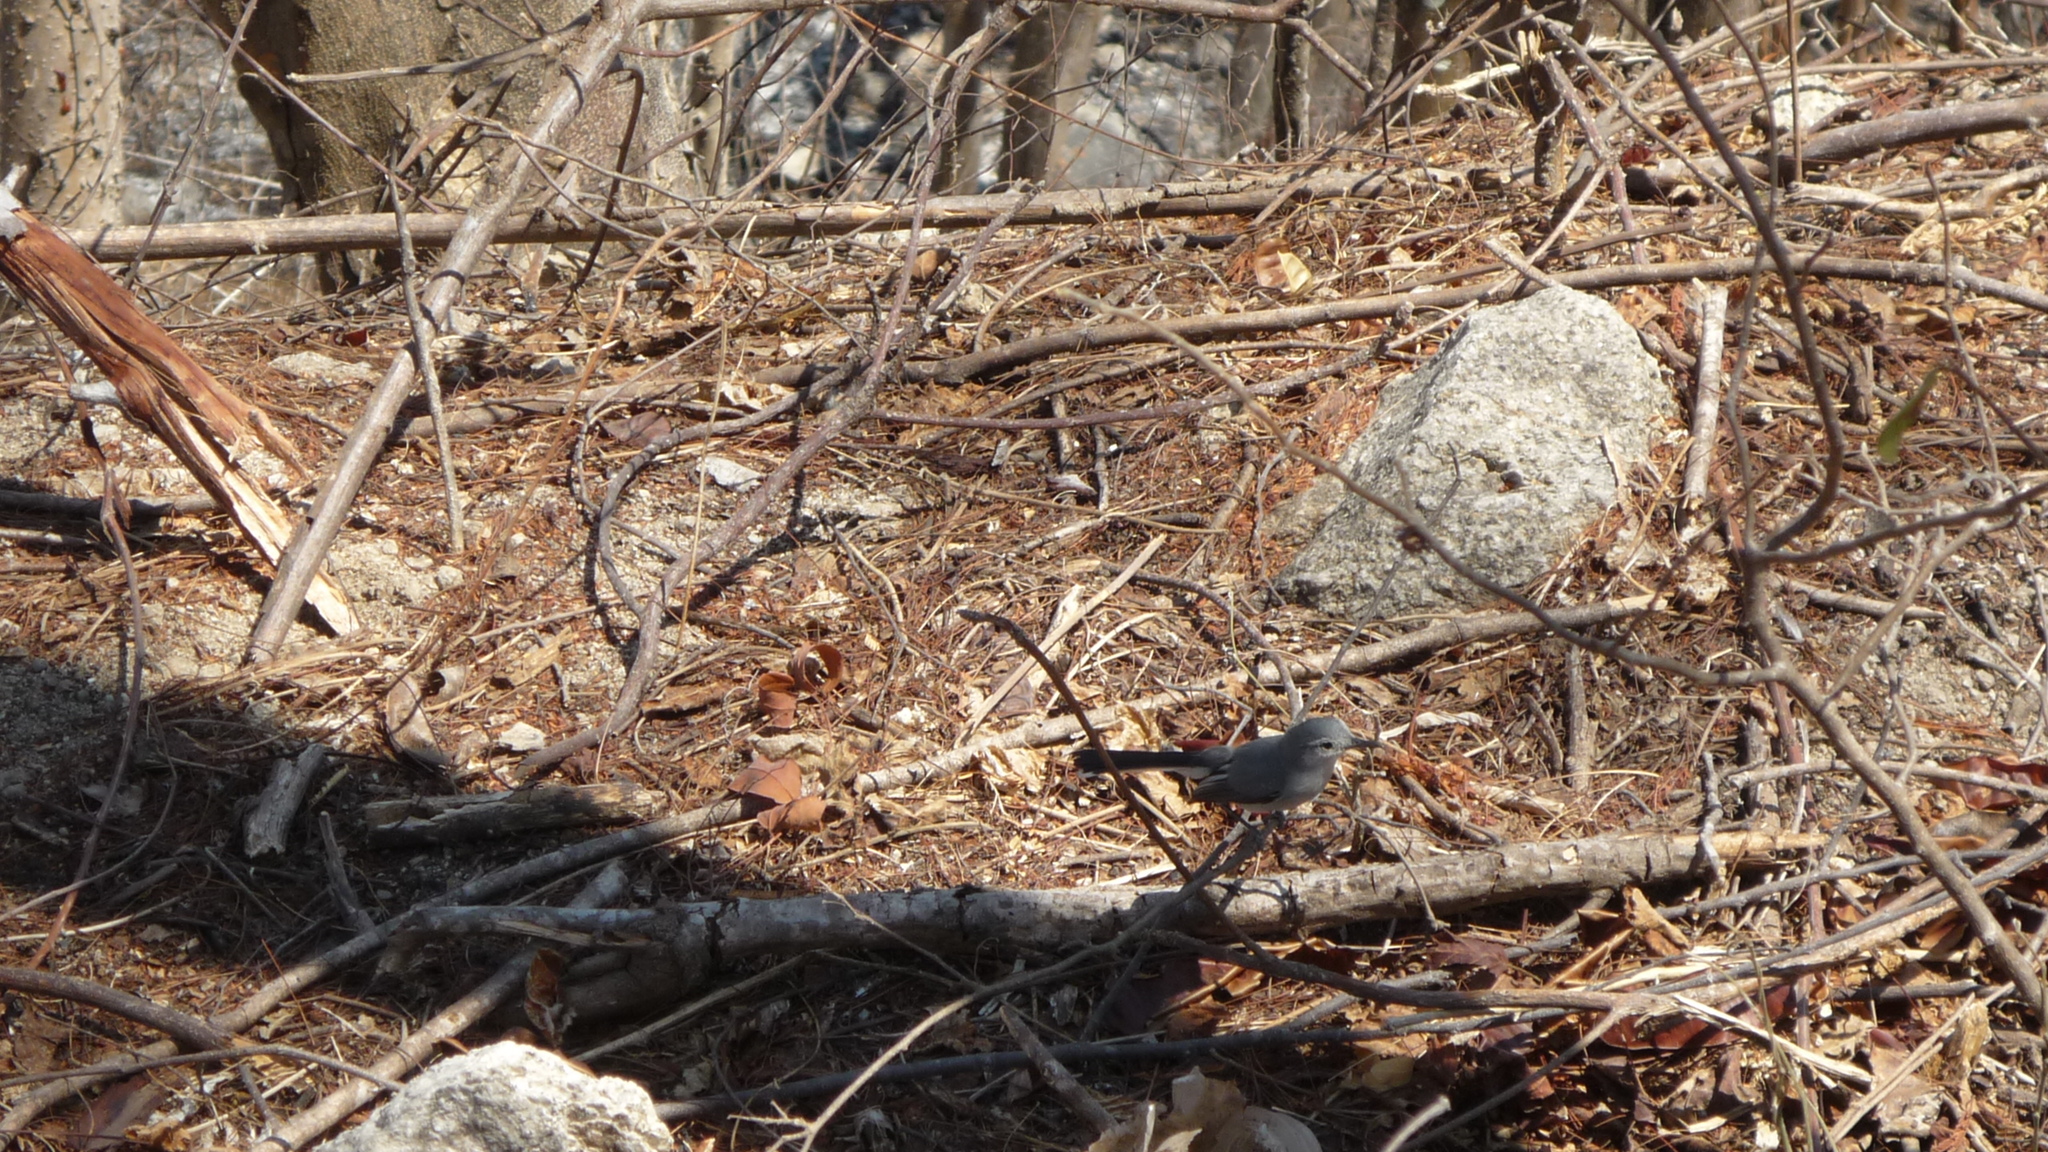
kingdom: Animalia
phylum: Chordata
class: Aves
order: Passeriformes
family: Polioptilidae
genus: Polioptila
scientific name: Polioptila albiloris
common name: White-lored gnatcatcher
